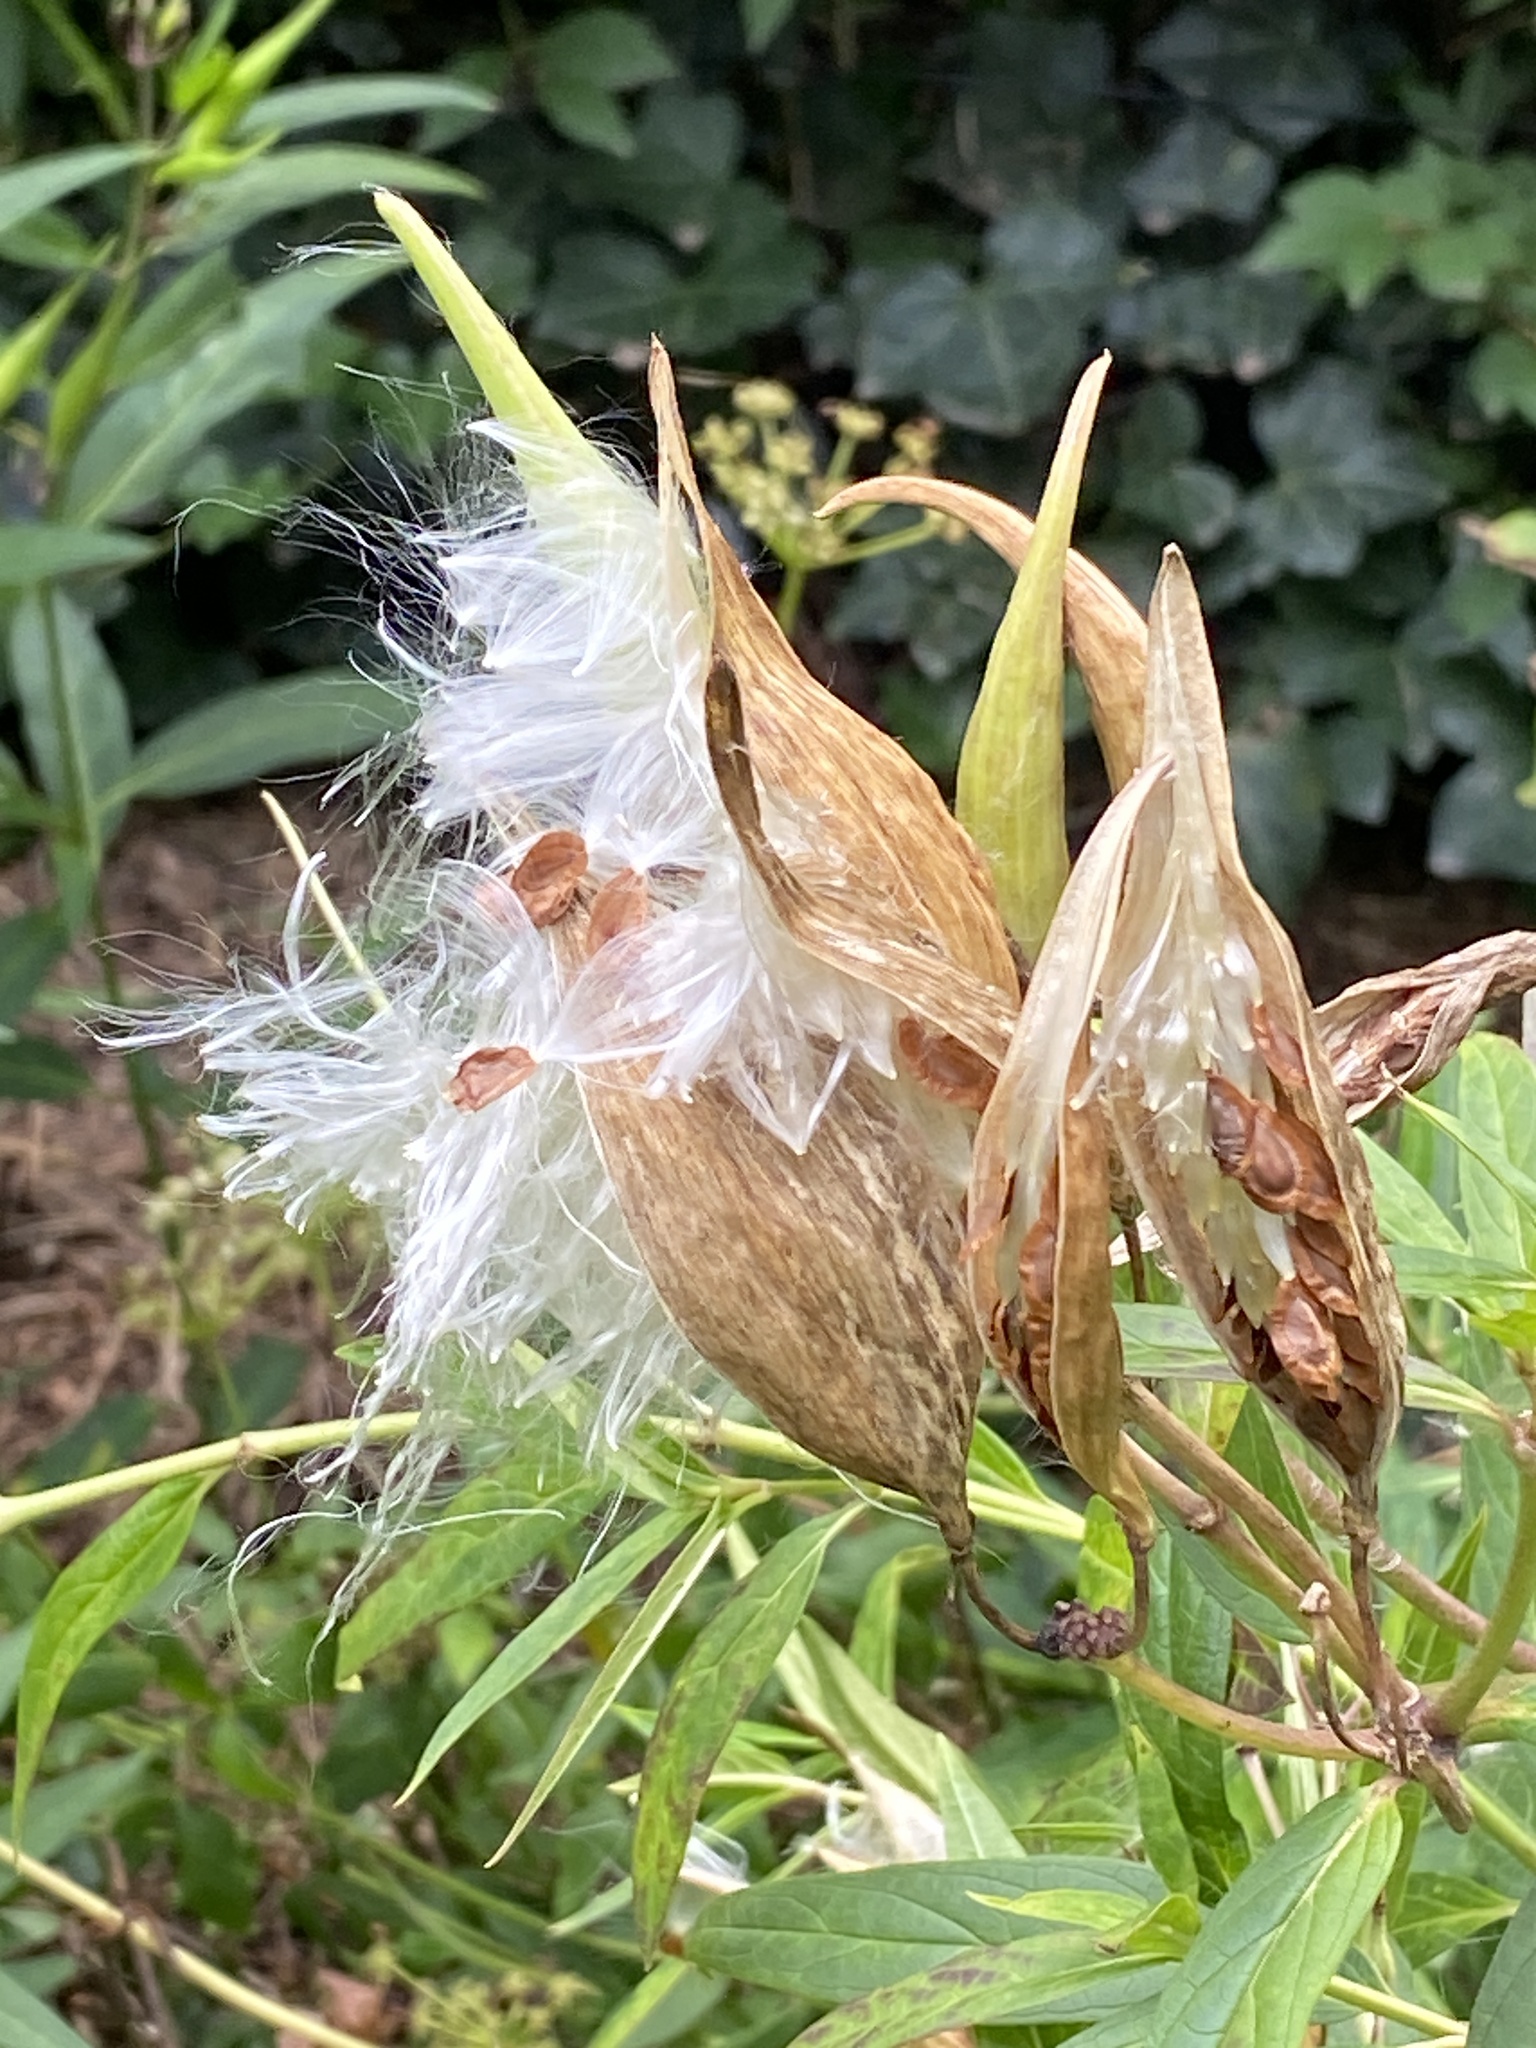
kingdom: Plantae
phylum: Tracheophyta
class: Magnoliopsida
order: Gentianales
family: Apocynaceae
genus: Asclepias
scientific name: Asclepias incarnata
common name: Swamp milkweed
